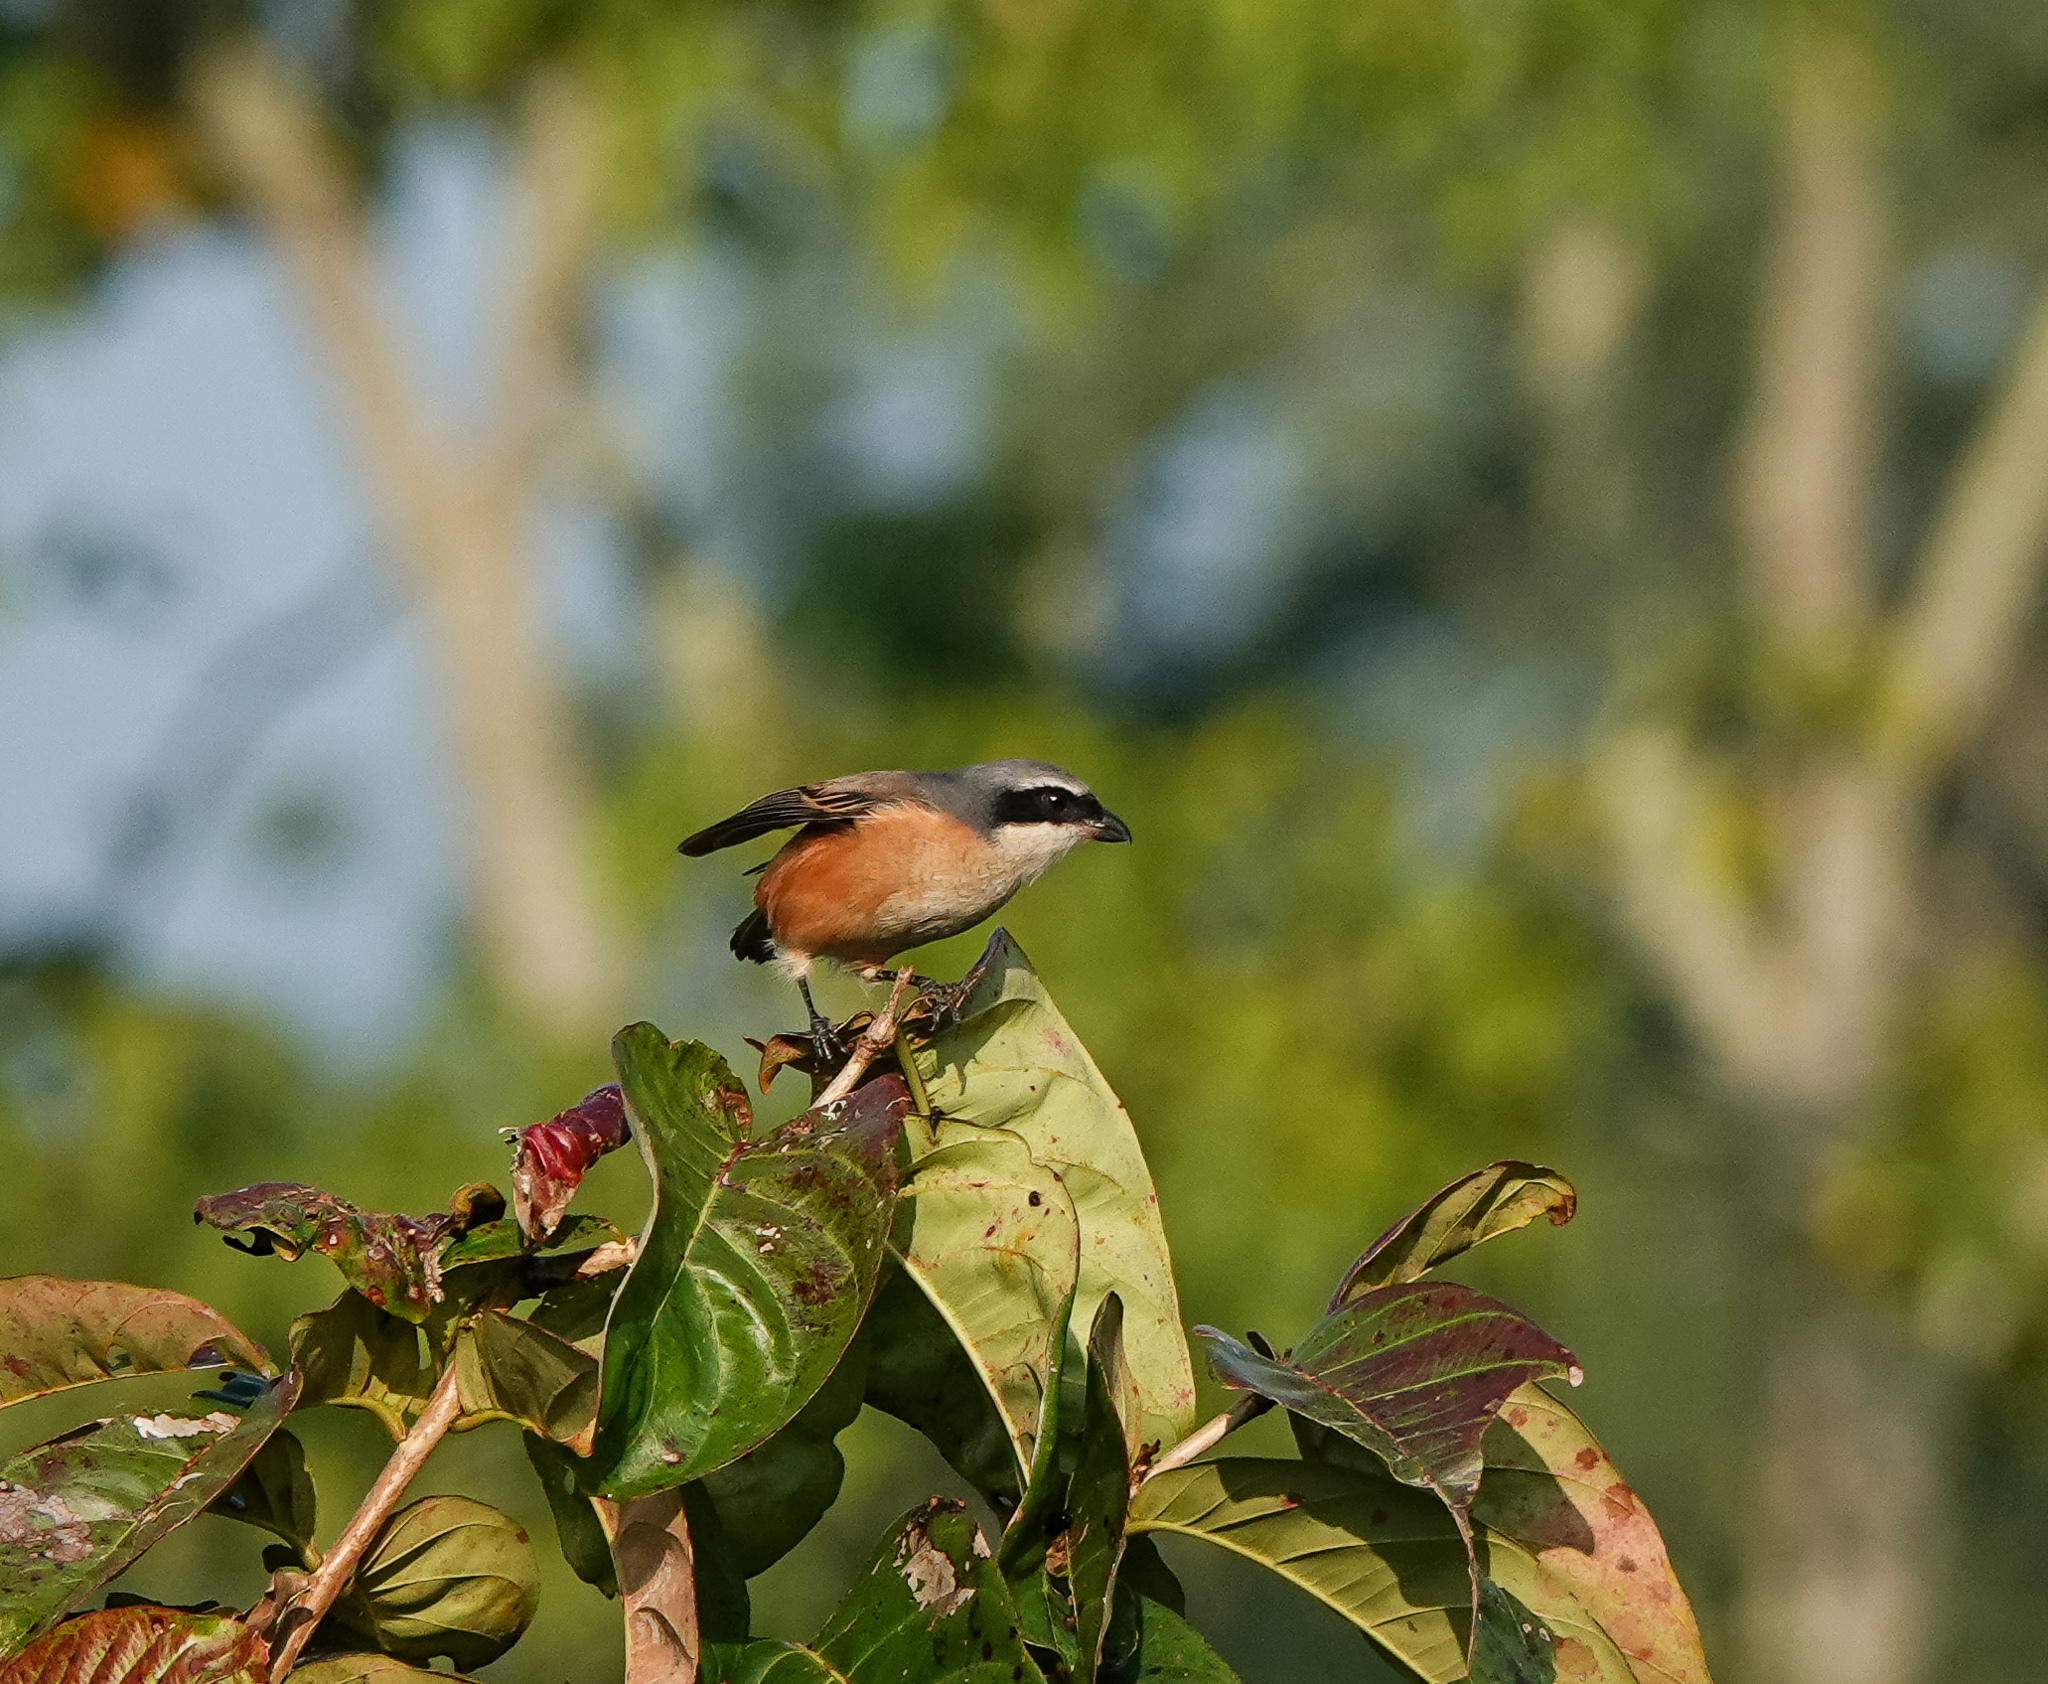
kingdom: Animalia
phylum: Chordata
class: Aves
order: Passeriformes
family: Laniidae
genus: Lanius
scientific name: Lanius tephronotus
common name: Grey-backed shrike
